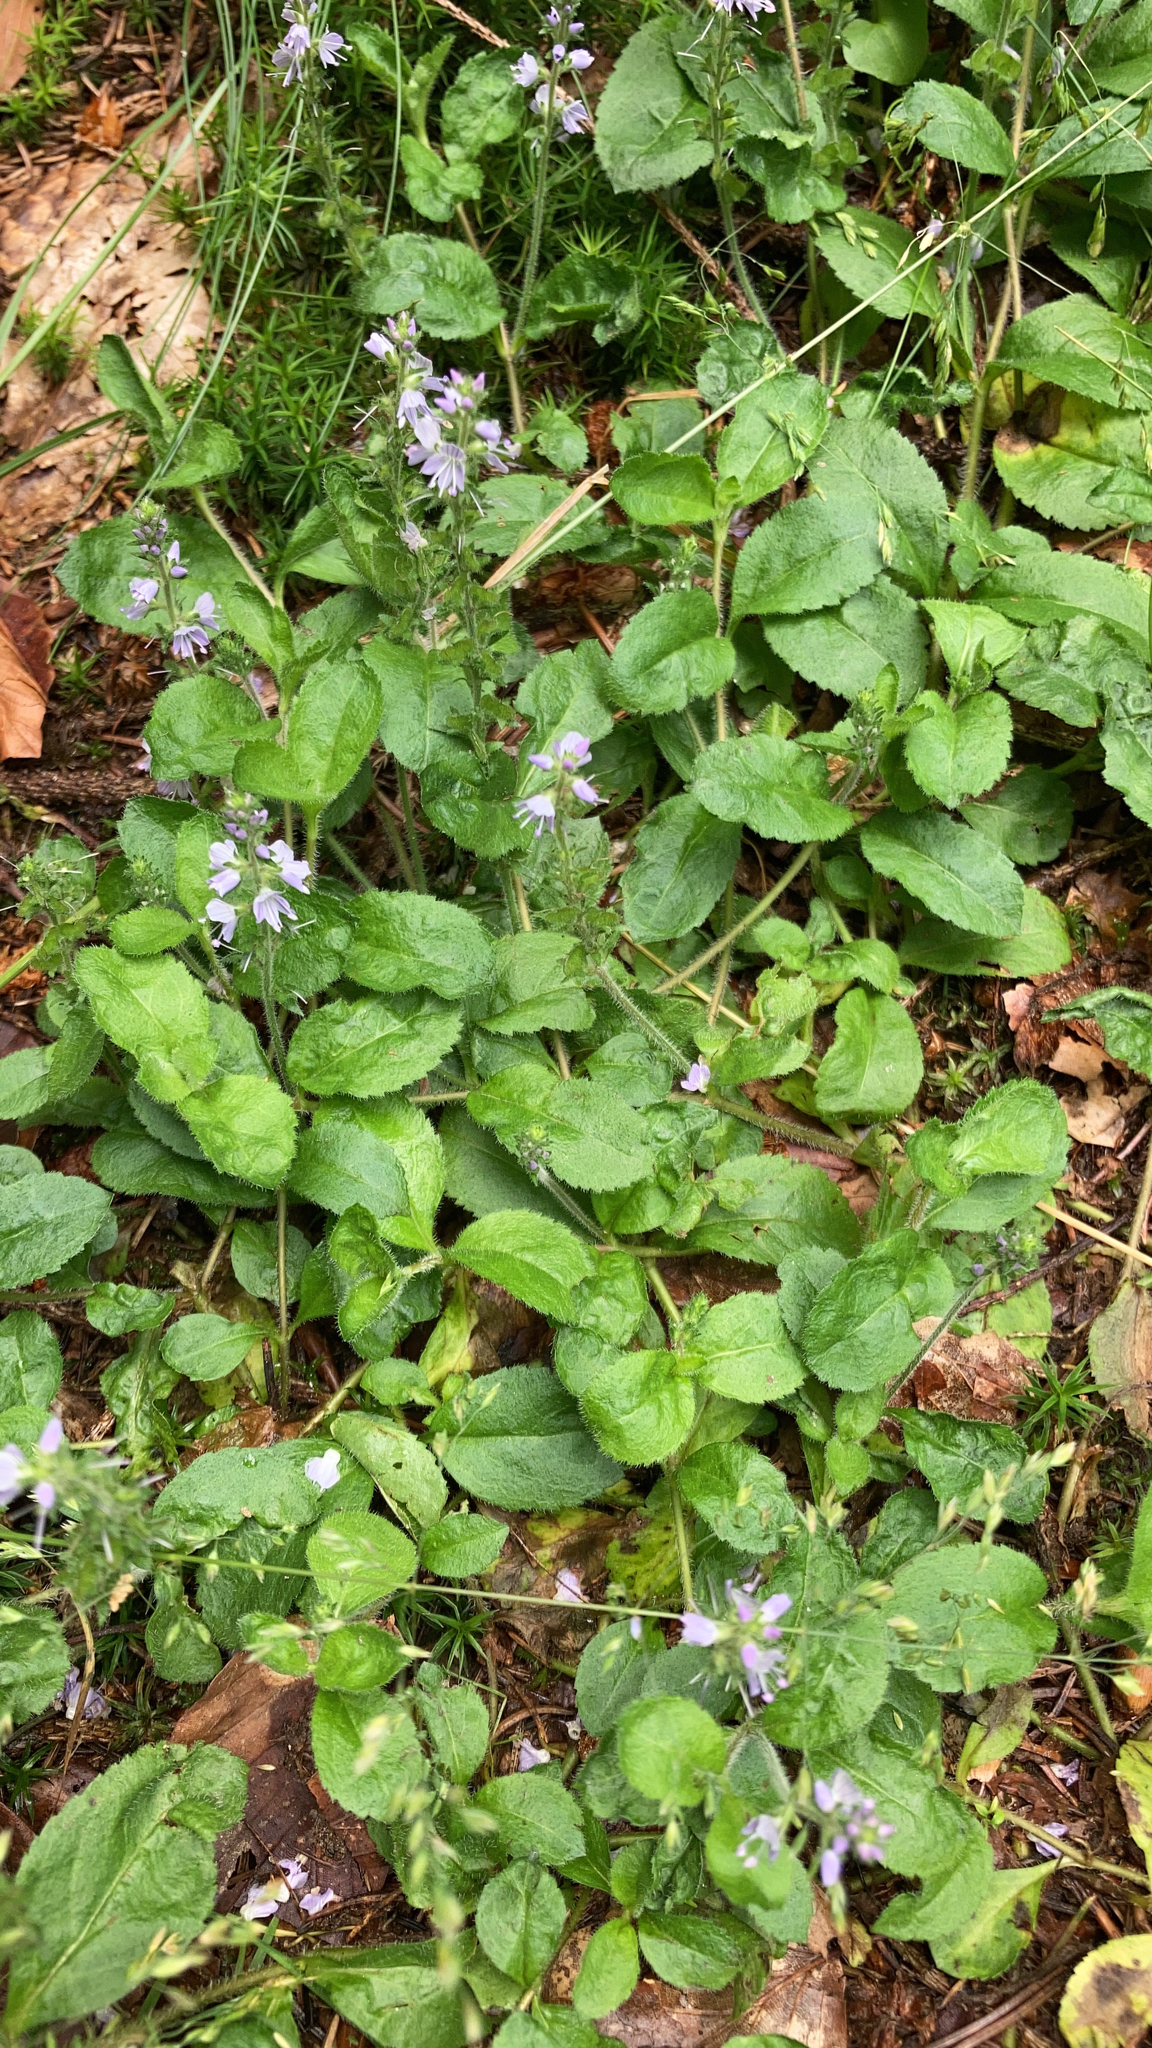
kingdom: Plantae
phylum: Tracheophyta
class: Magnoliopsida
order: Lamiales
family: Plantaginaceae
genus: Veronica
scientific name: Veronica officinalis
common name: Common speedwell
